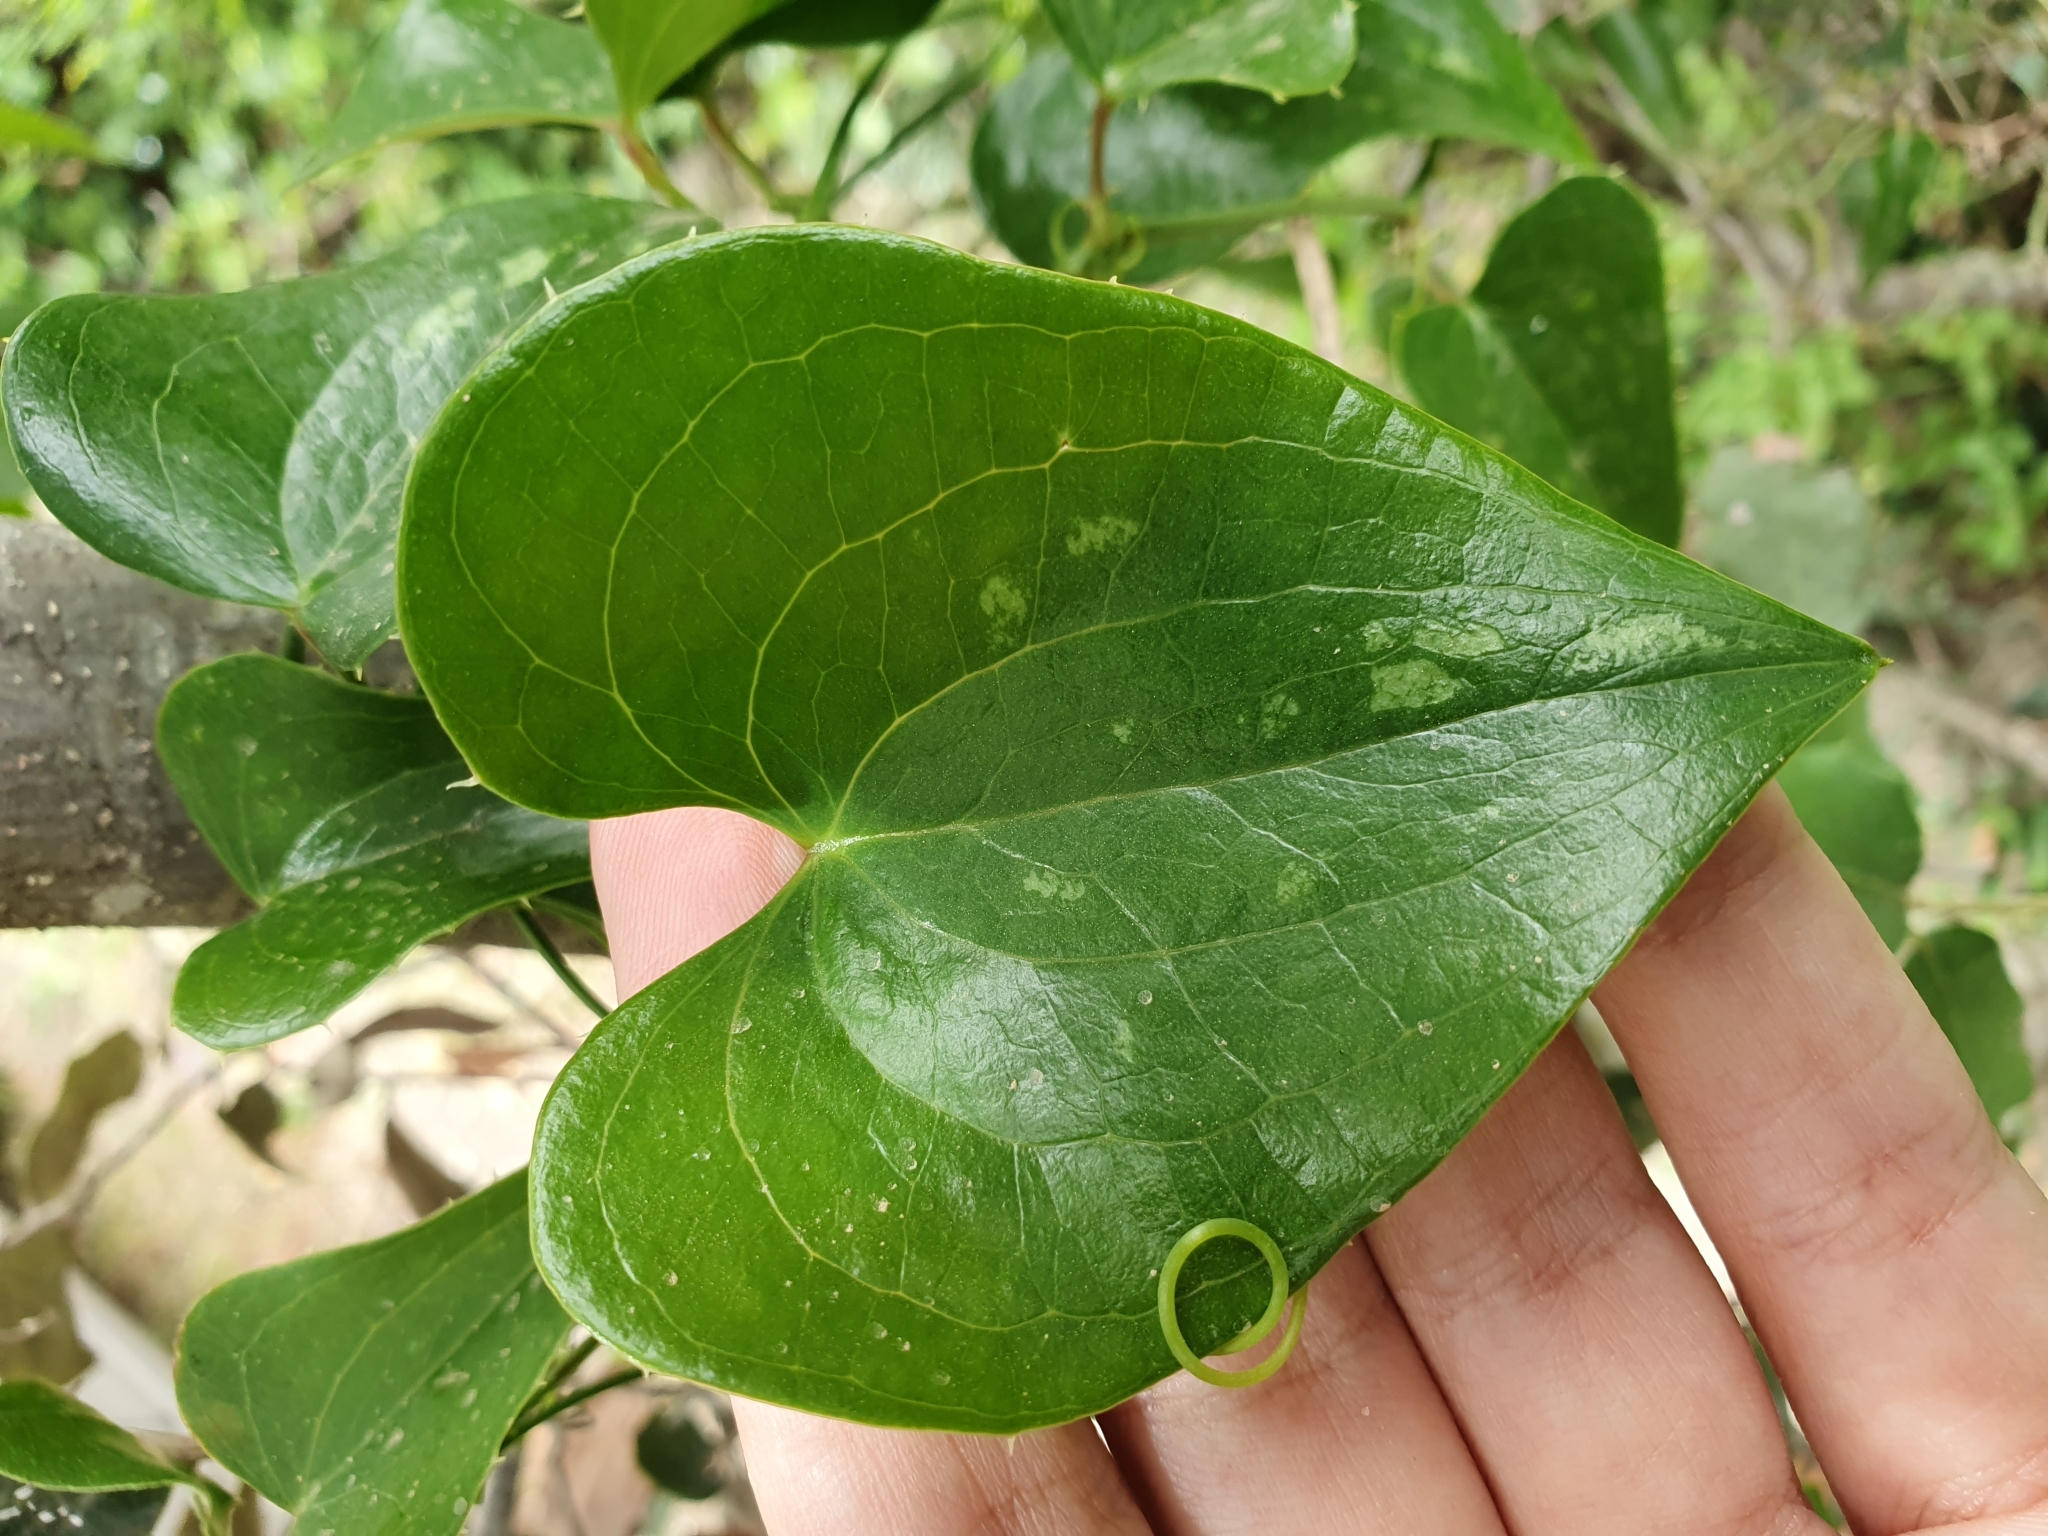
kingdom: Plantae
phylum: Tracheophyta
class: Liliopsida
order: Liliales
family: Smilacaceae
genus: Smilax
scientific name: Smilax aspera
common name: Common smilax
